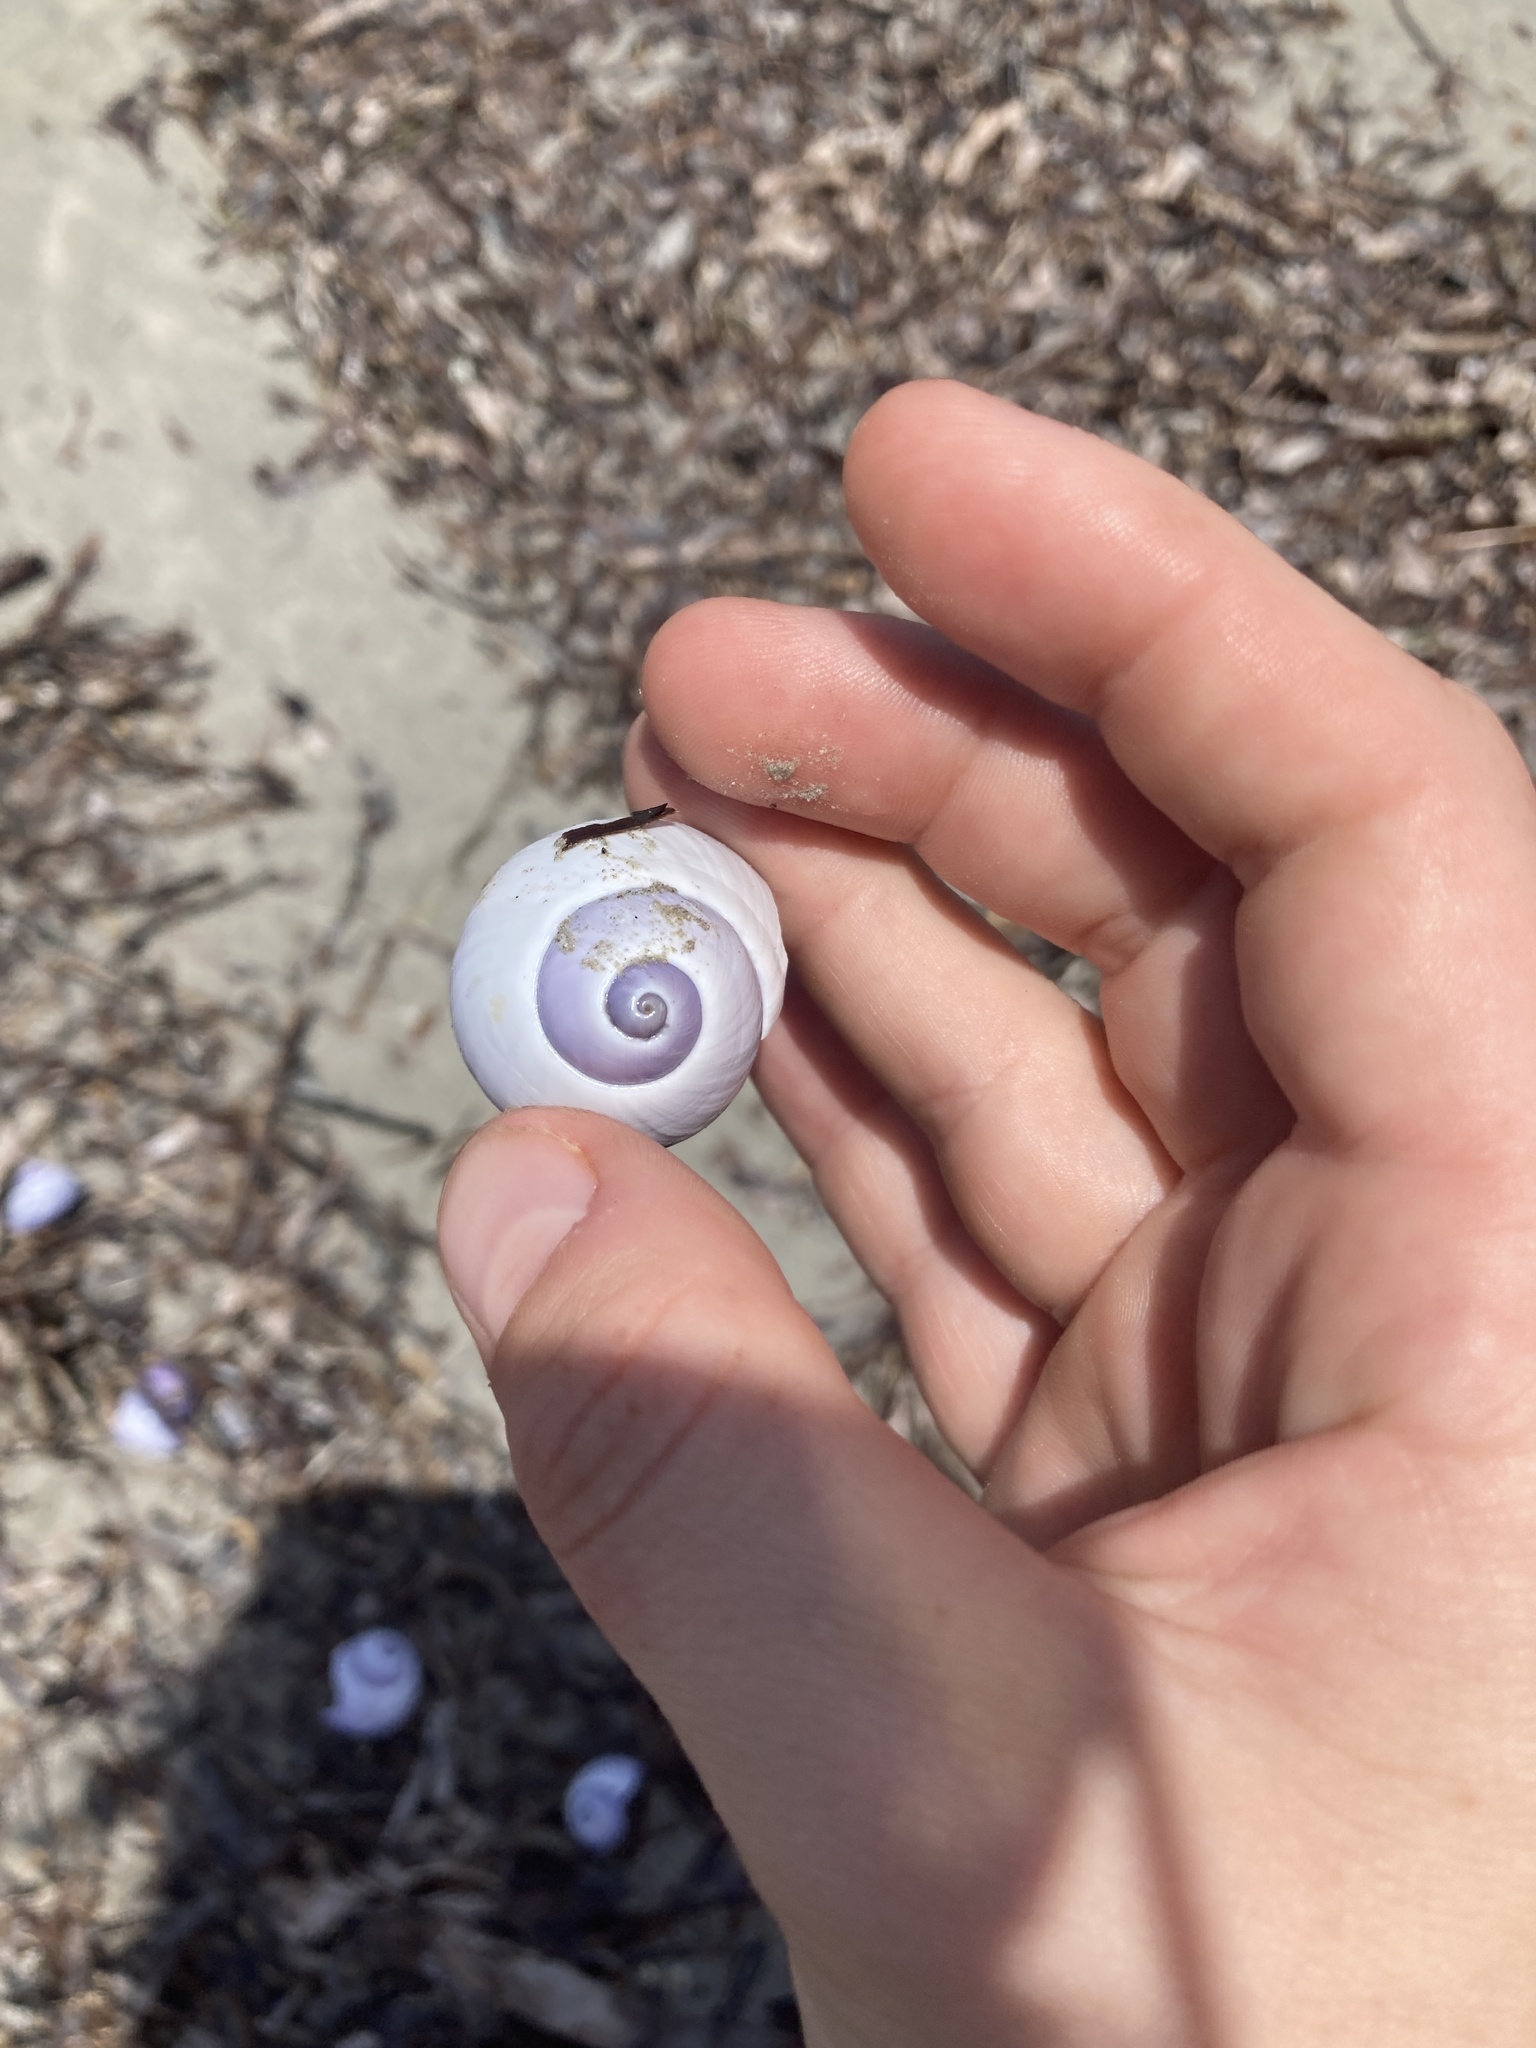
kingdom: Animalia
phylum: Mollusca
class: Gastropoda
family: Epitoniidae
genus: Janthina
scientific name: Janthina janthina
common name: Common janthina
